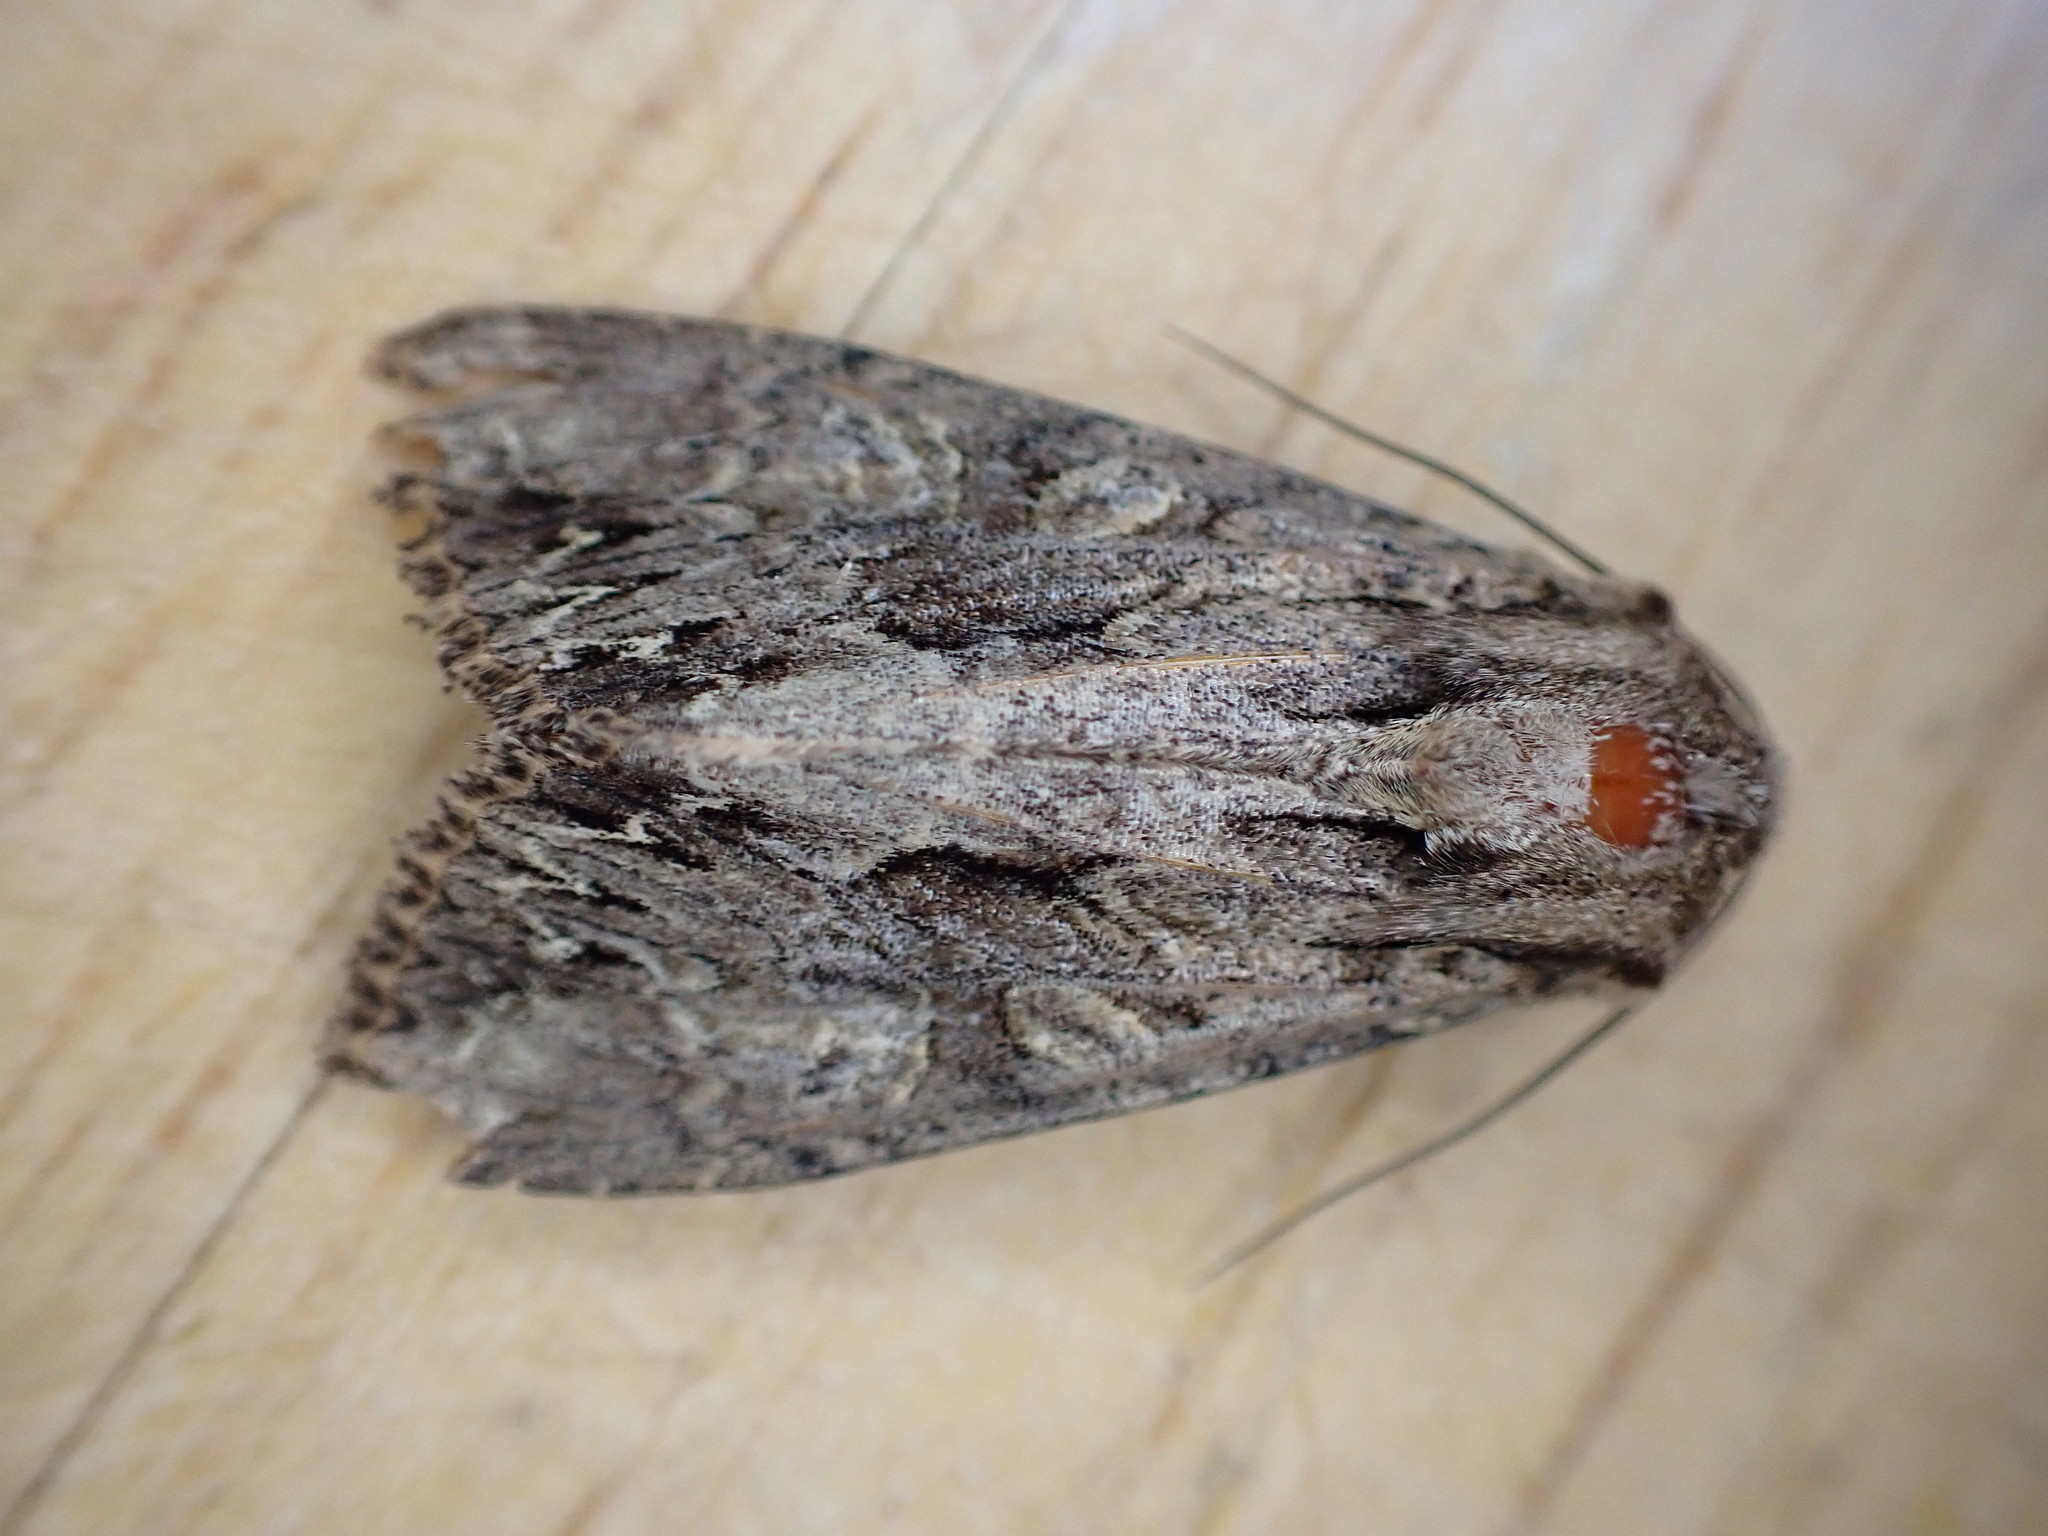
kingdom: Animalia
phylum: Arthropoda
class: Insecta
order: Lepidoptera
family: Noctuidae
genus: Apamea
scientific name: Apamea monoglypha
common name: Dark arches
